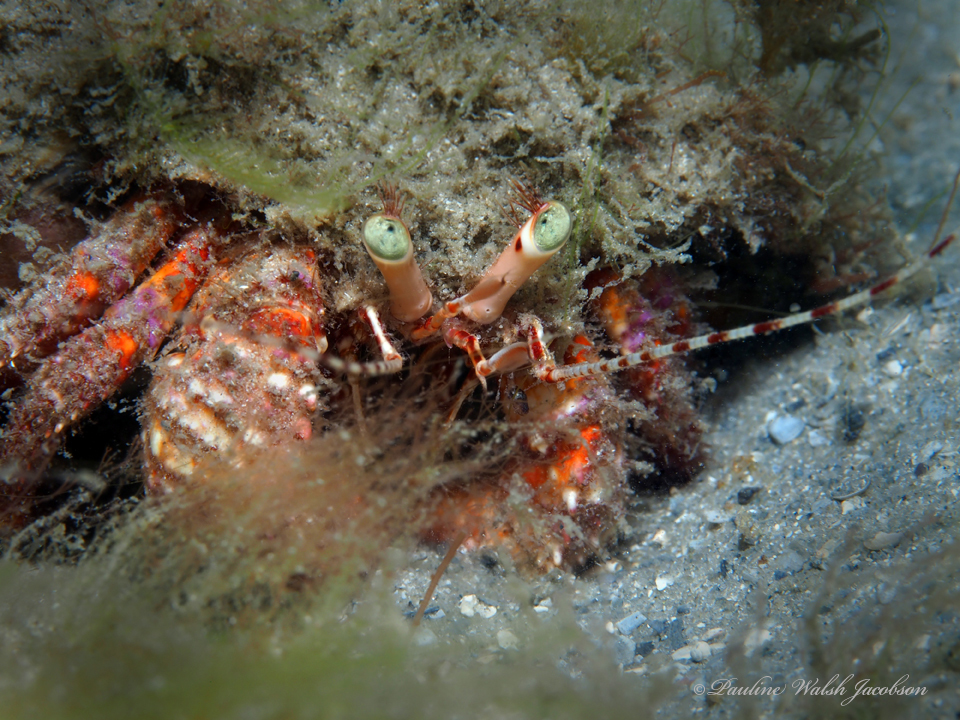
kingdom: Animalia
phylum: Arthropoda
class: Malacostraca
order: Decapoda
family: Diogenidae
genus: Petrochirus
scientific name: Petrochirus diogenes
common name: Giant hermit crab
